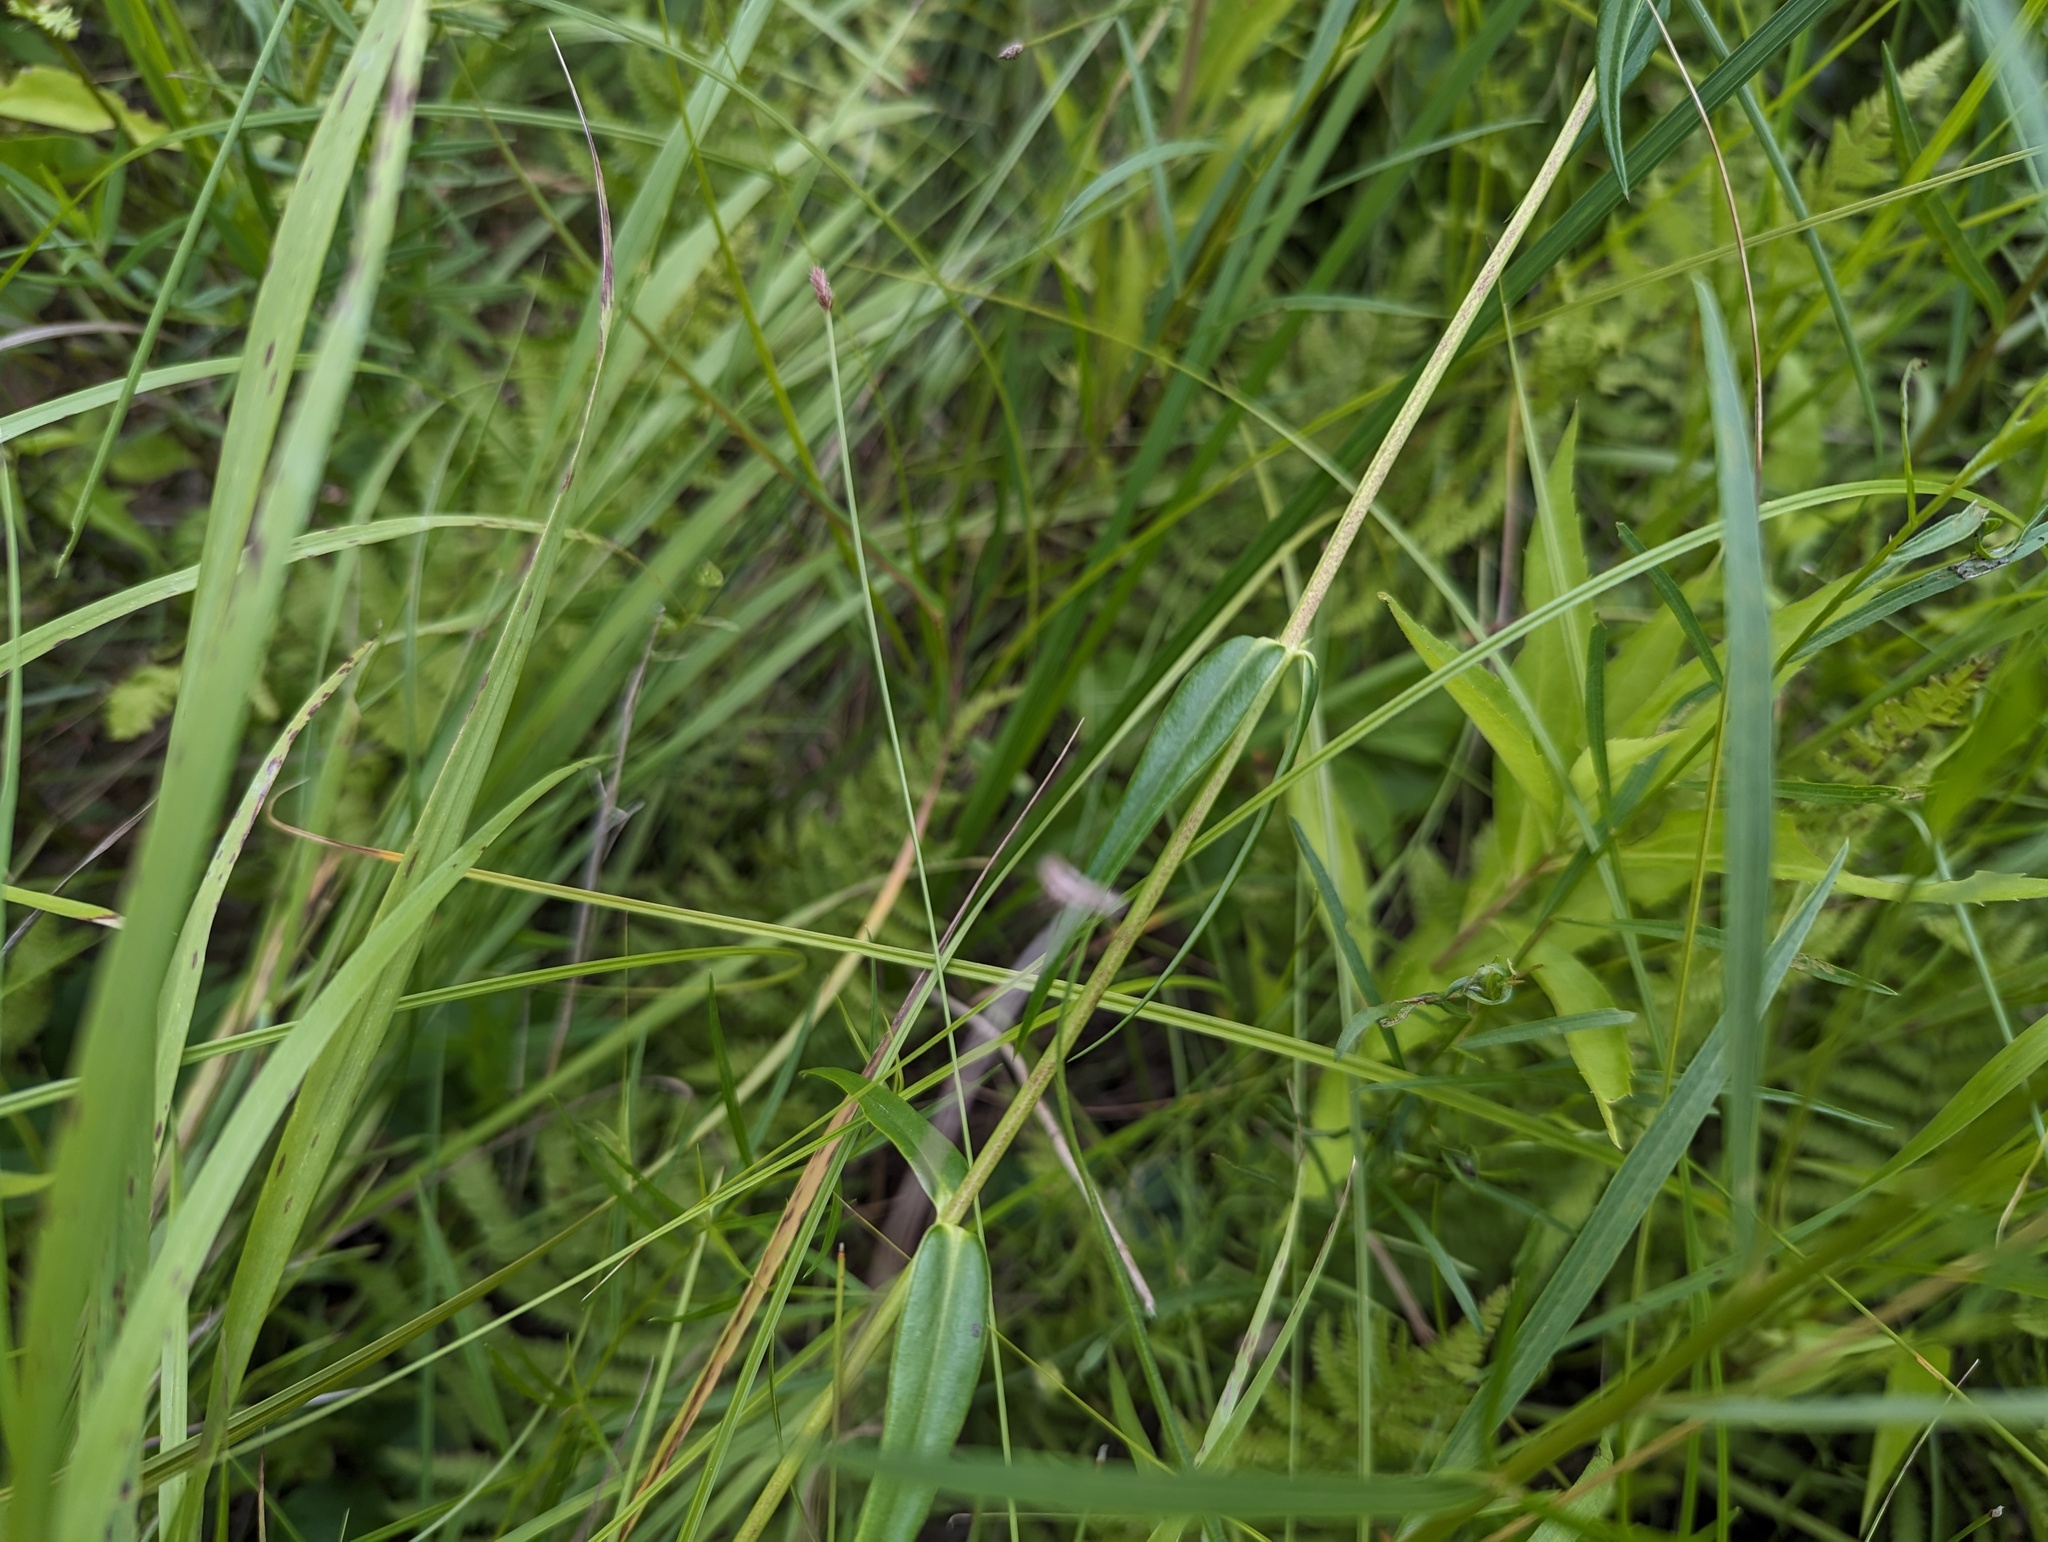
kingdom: Plantae
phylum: Tracheophyta
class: Magnoliopsida
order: Ericales
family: Polemoniaceae
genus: Phlox
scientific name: Phlox glaberrima
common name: Smooth phlox
